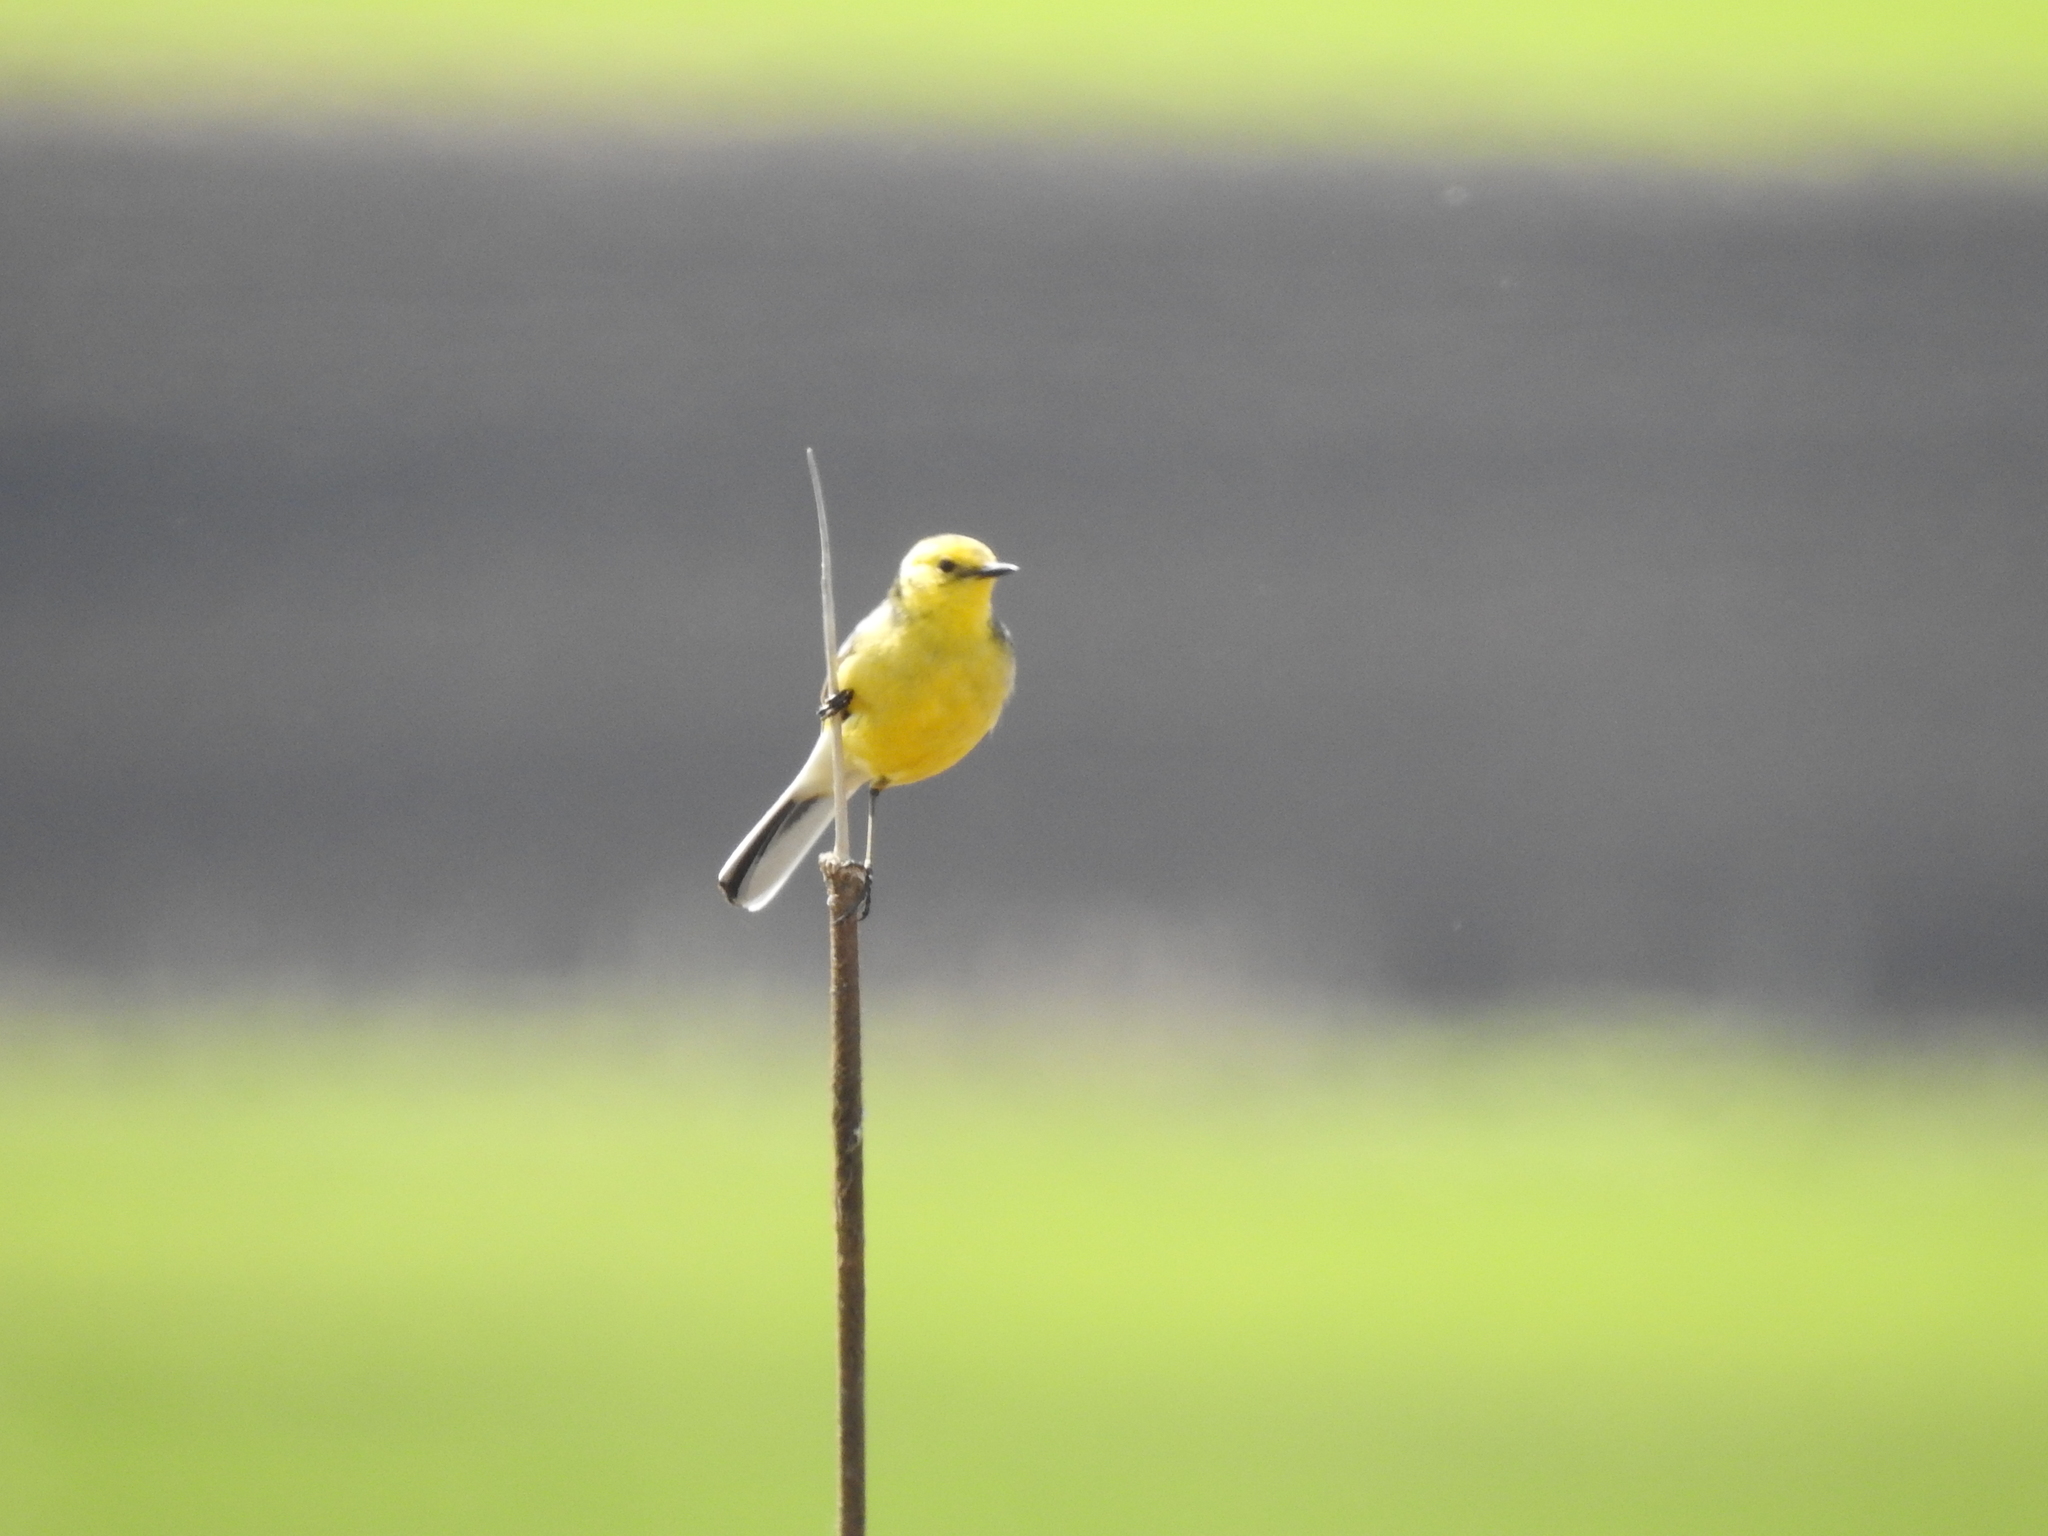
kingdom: Animalia
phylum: Chordata
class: Aves
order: Passeriformes
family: Motacillidae
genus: Motacilla
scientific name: Motacilla citreola
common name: Citrine wagtail
